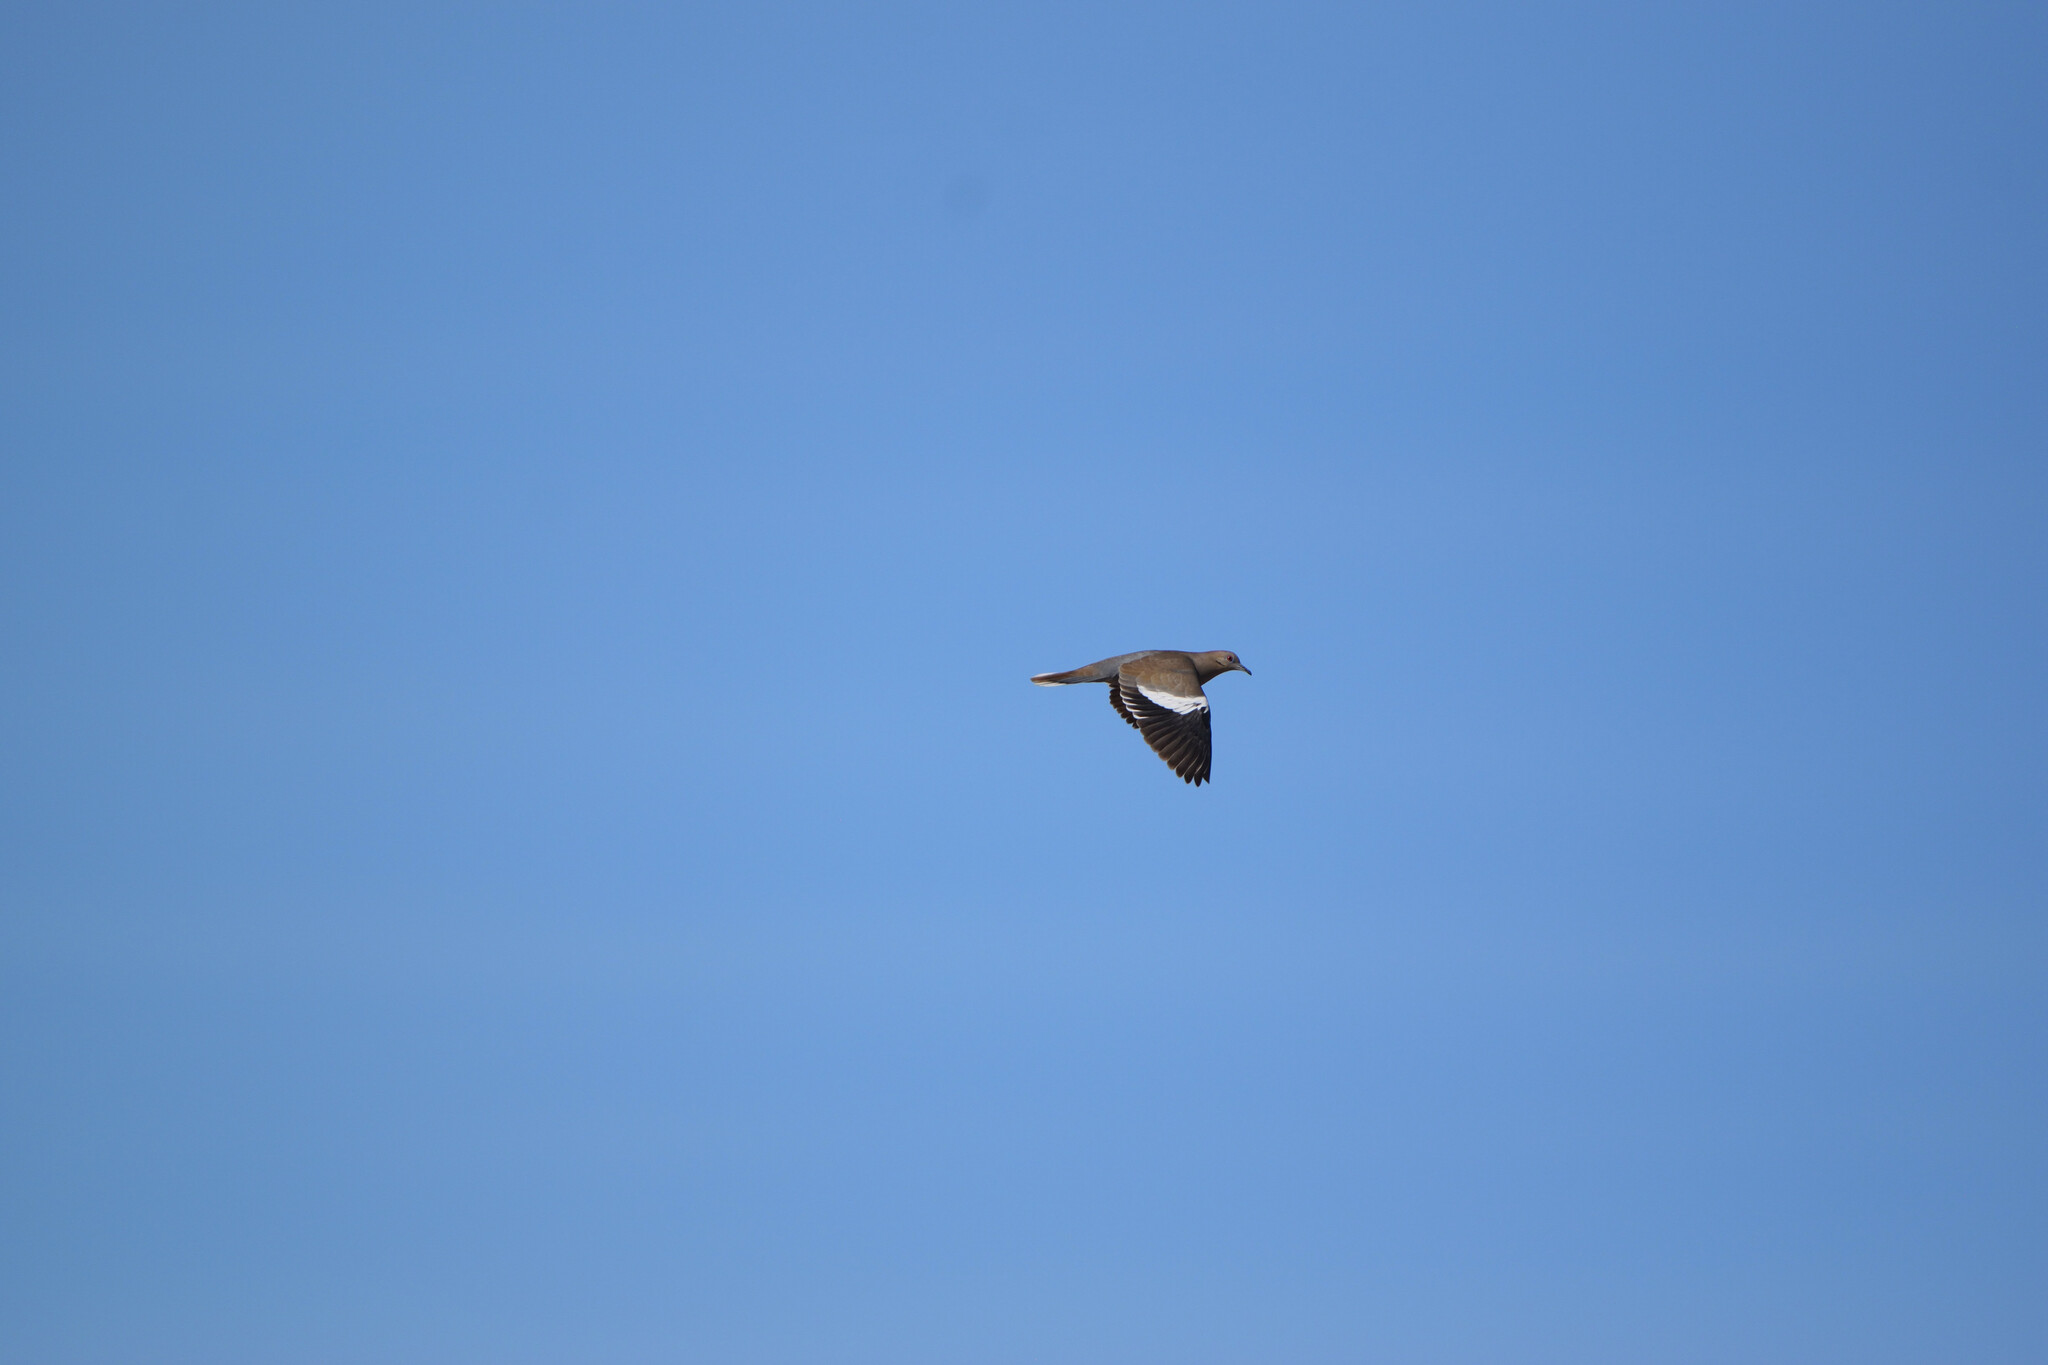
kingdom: Animalia
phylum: Chordata
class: Aves
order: Columbiformes
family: Columbidae
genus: Zenaida
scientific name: Zenaida asiatica
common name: White-winged dove
